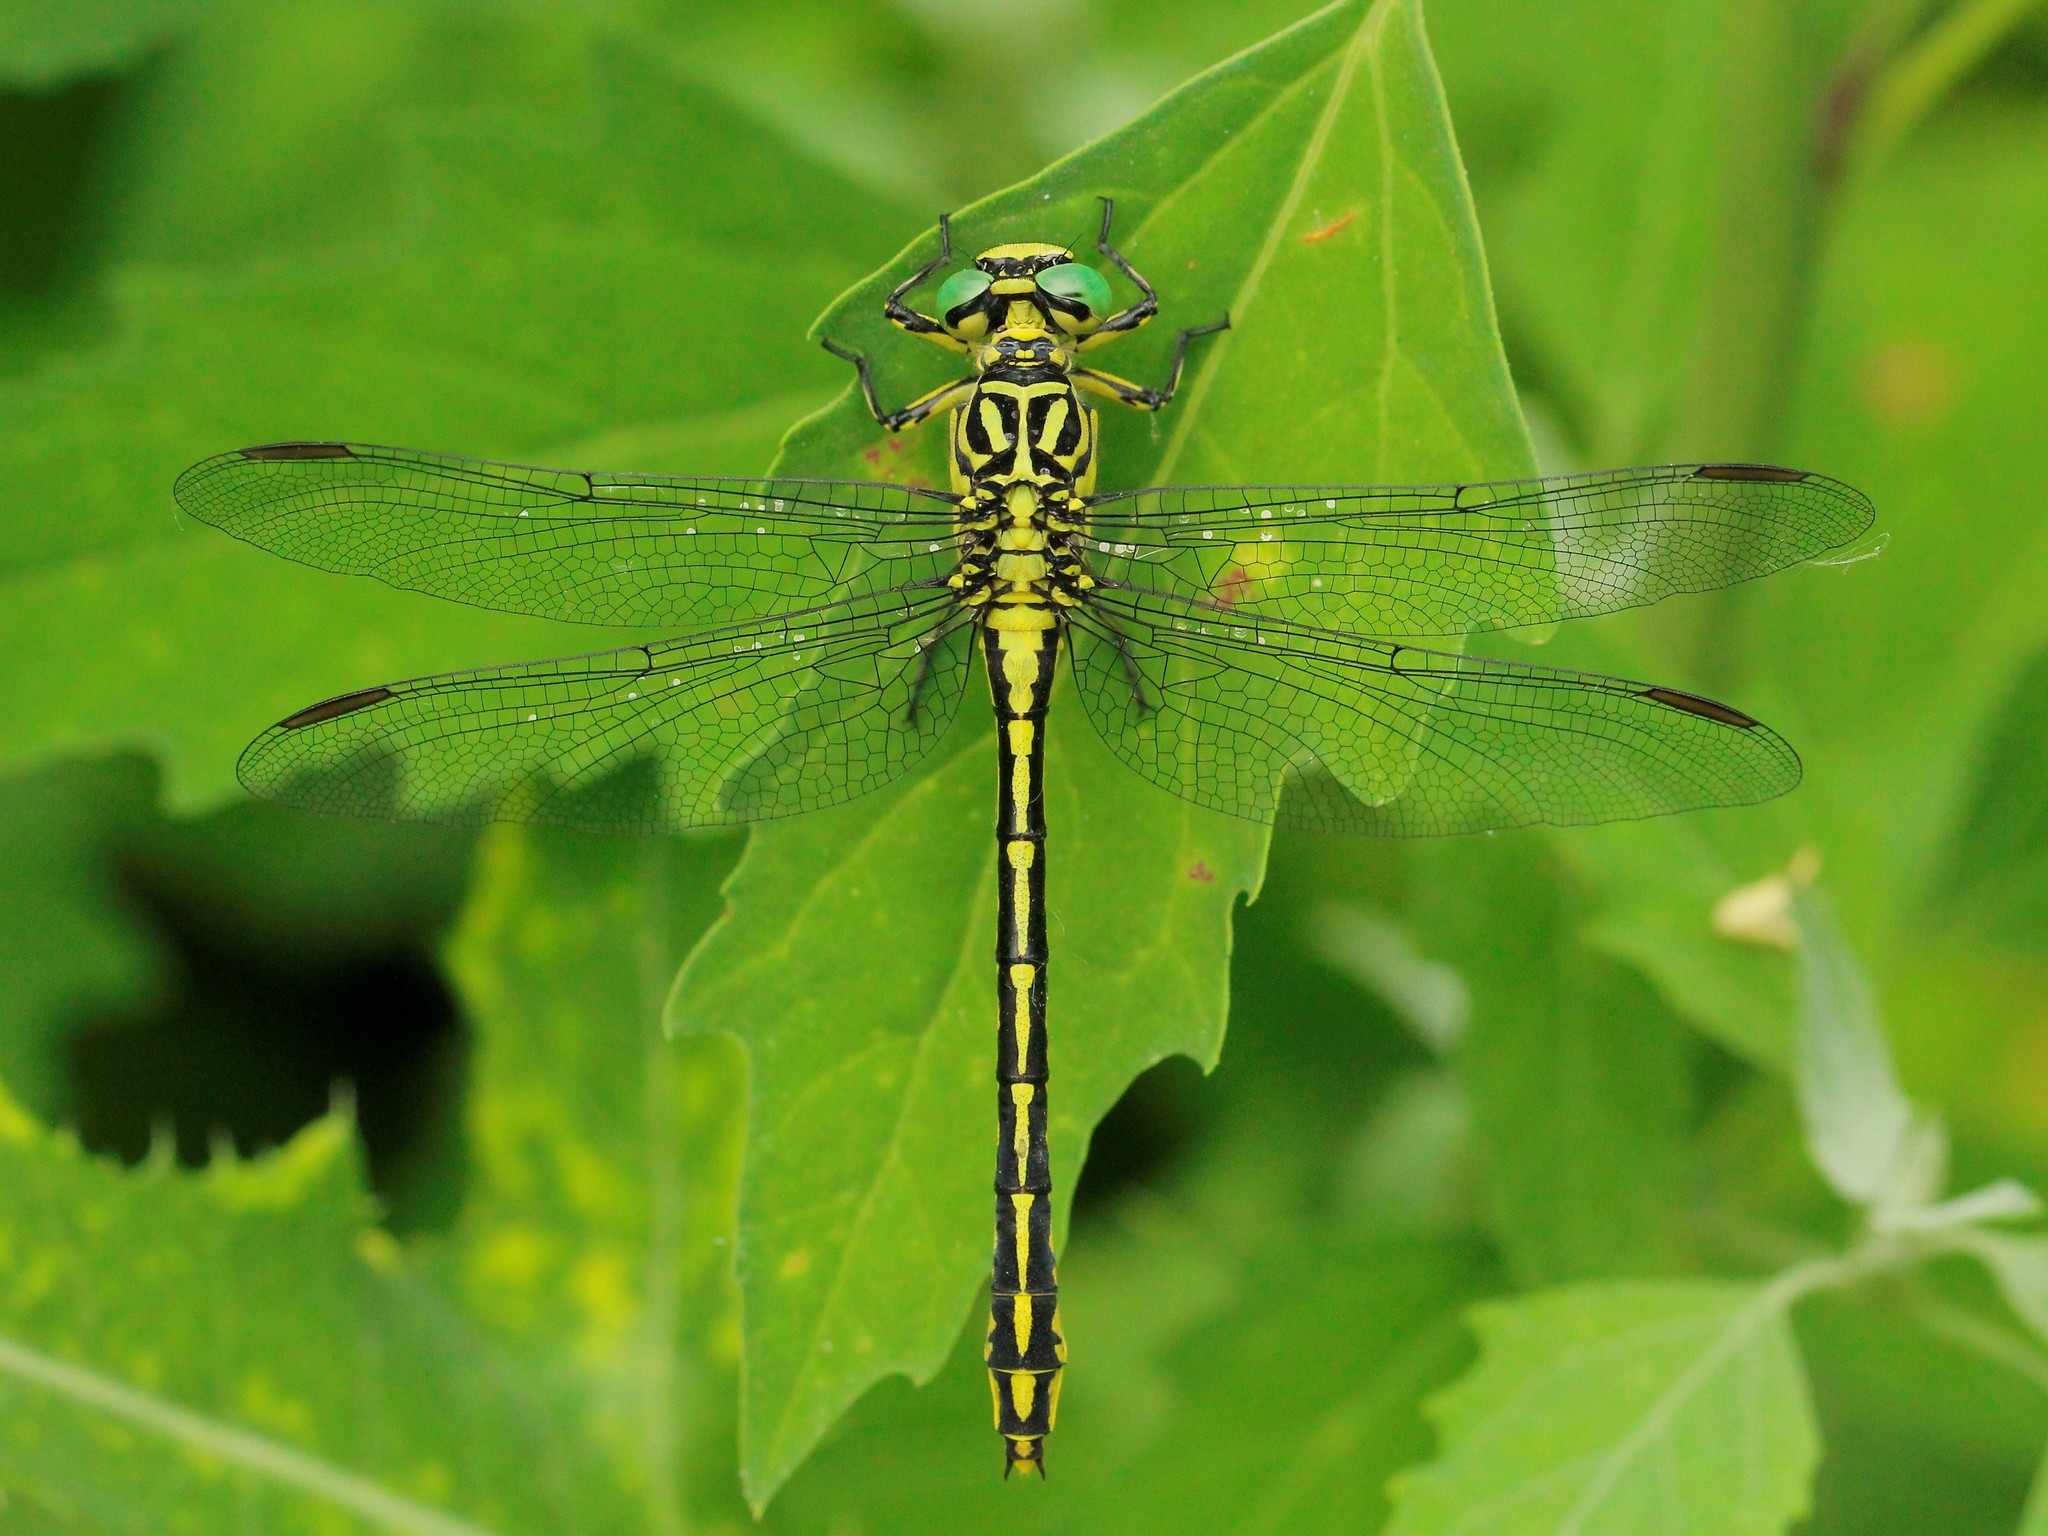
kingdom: Animalia
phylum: Arthropoda
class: Insecta
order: Odonata
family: Gomphidae
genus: Stylurus
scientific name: Stylurus flavipes
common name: River clubtail
